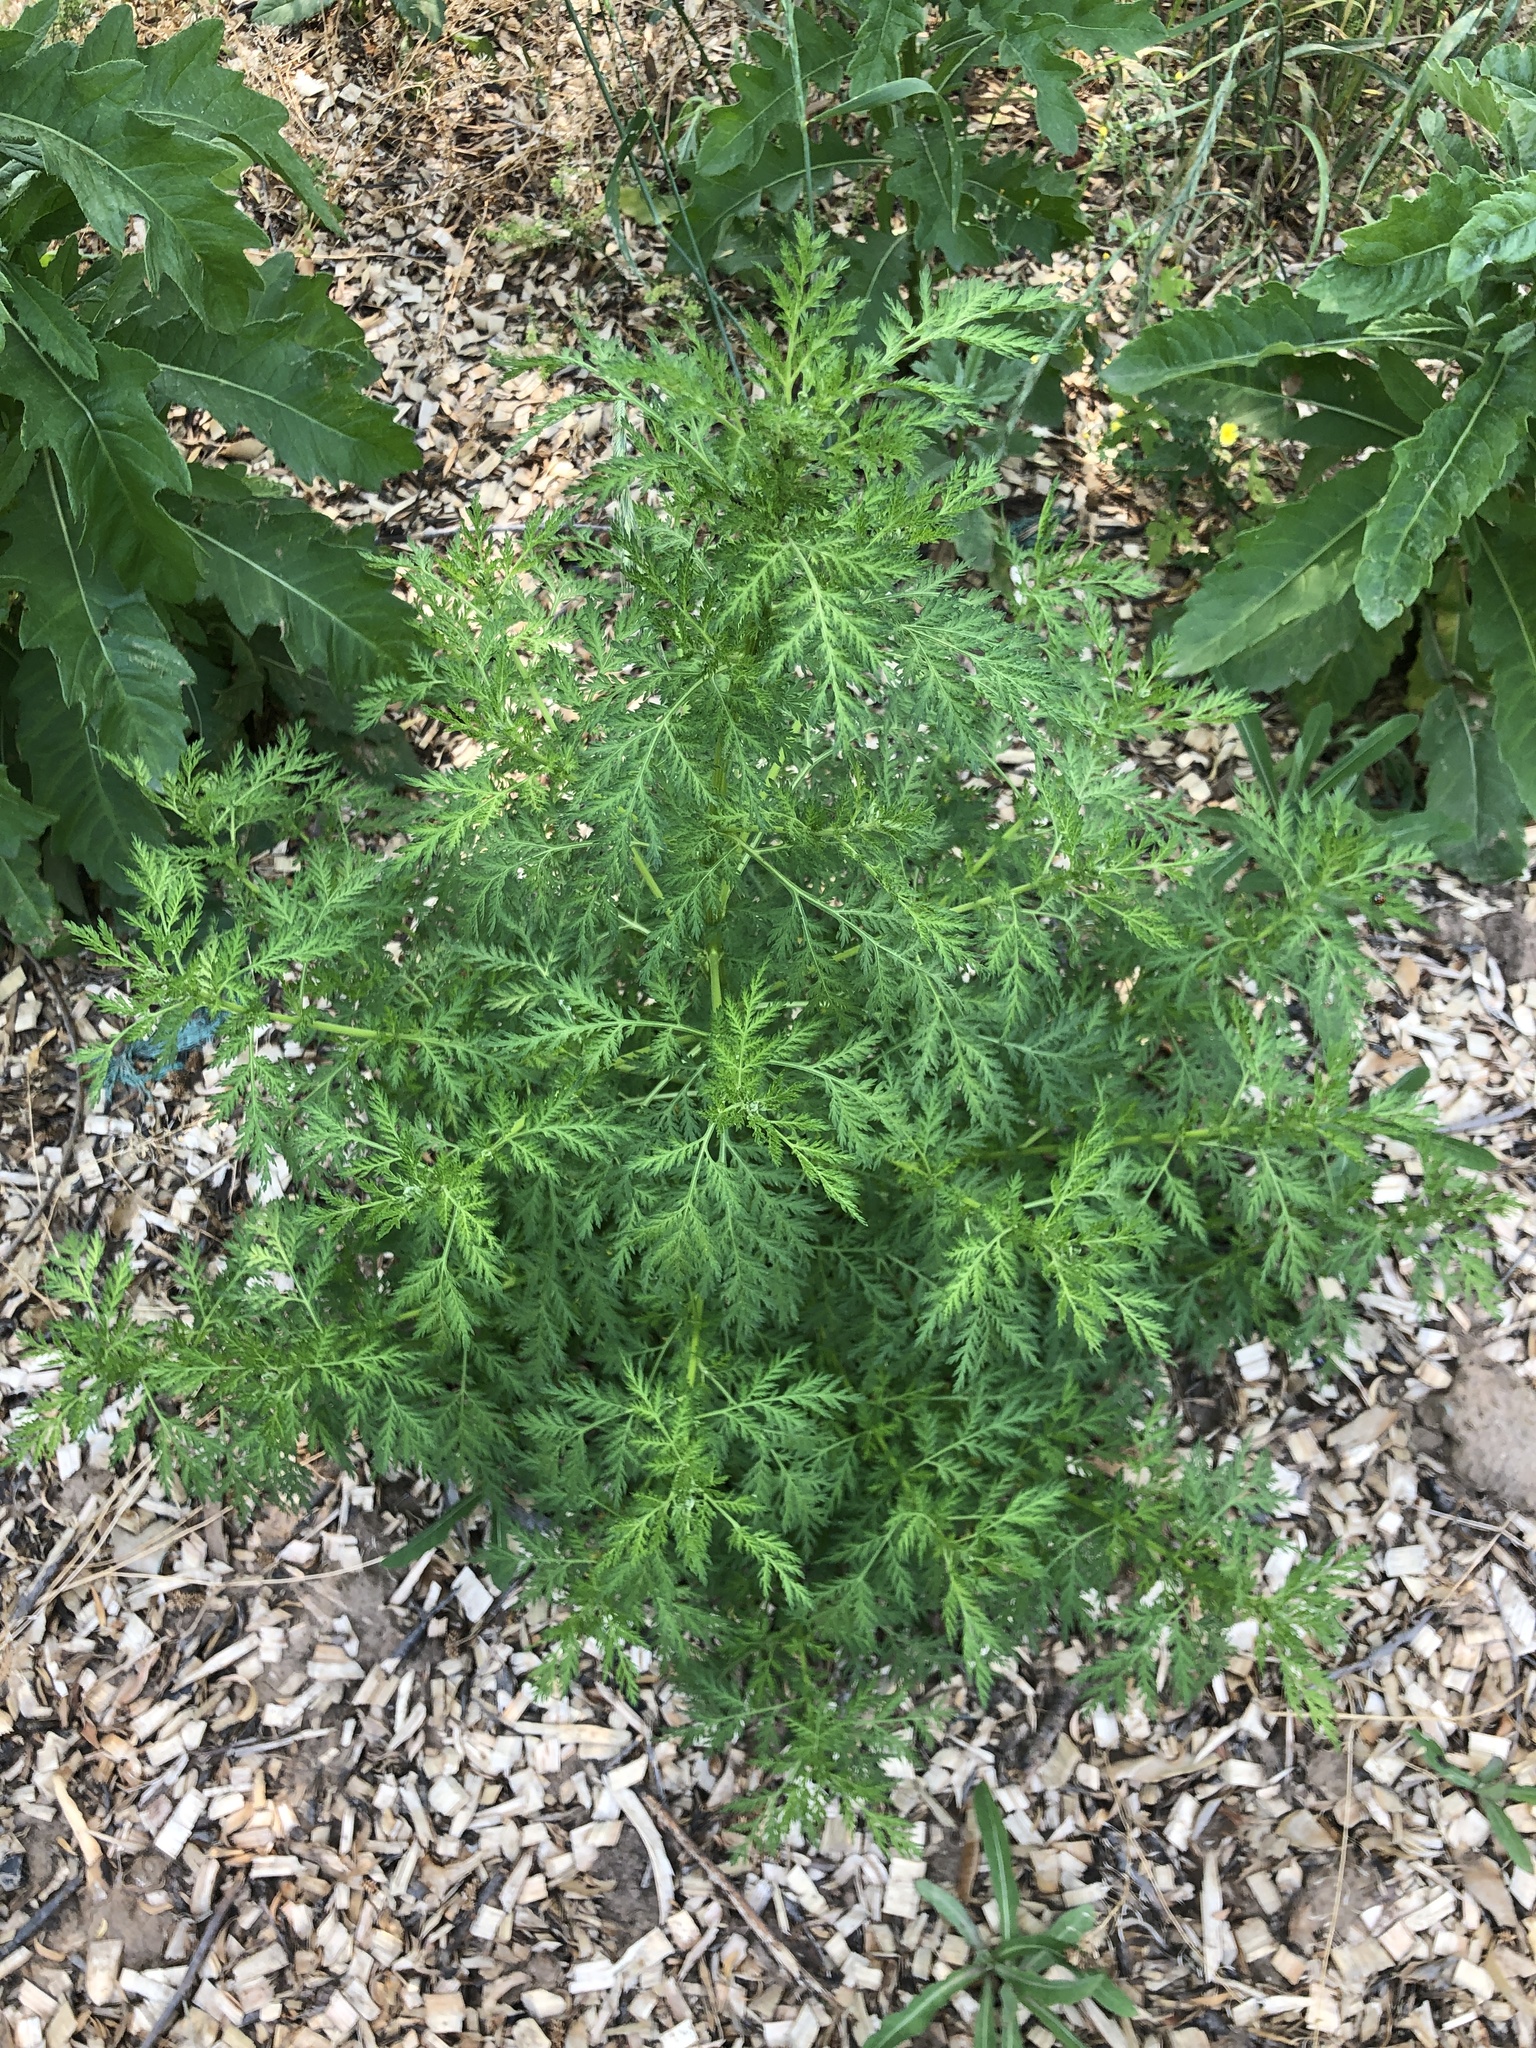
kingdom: Plantae
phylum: Tracheophyta
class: Magnoliopsida
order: Asterales
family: Asteraceae
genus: Artemisia
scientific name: Artemisia annua
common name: Sweet sagewort
